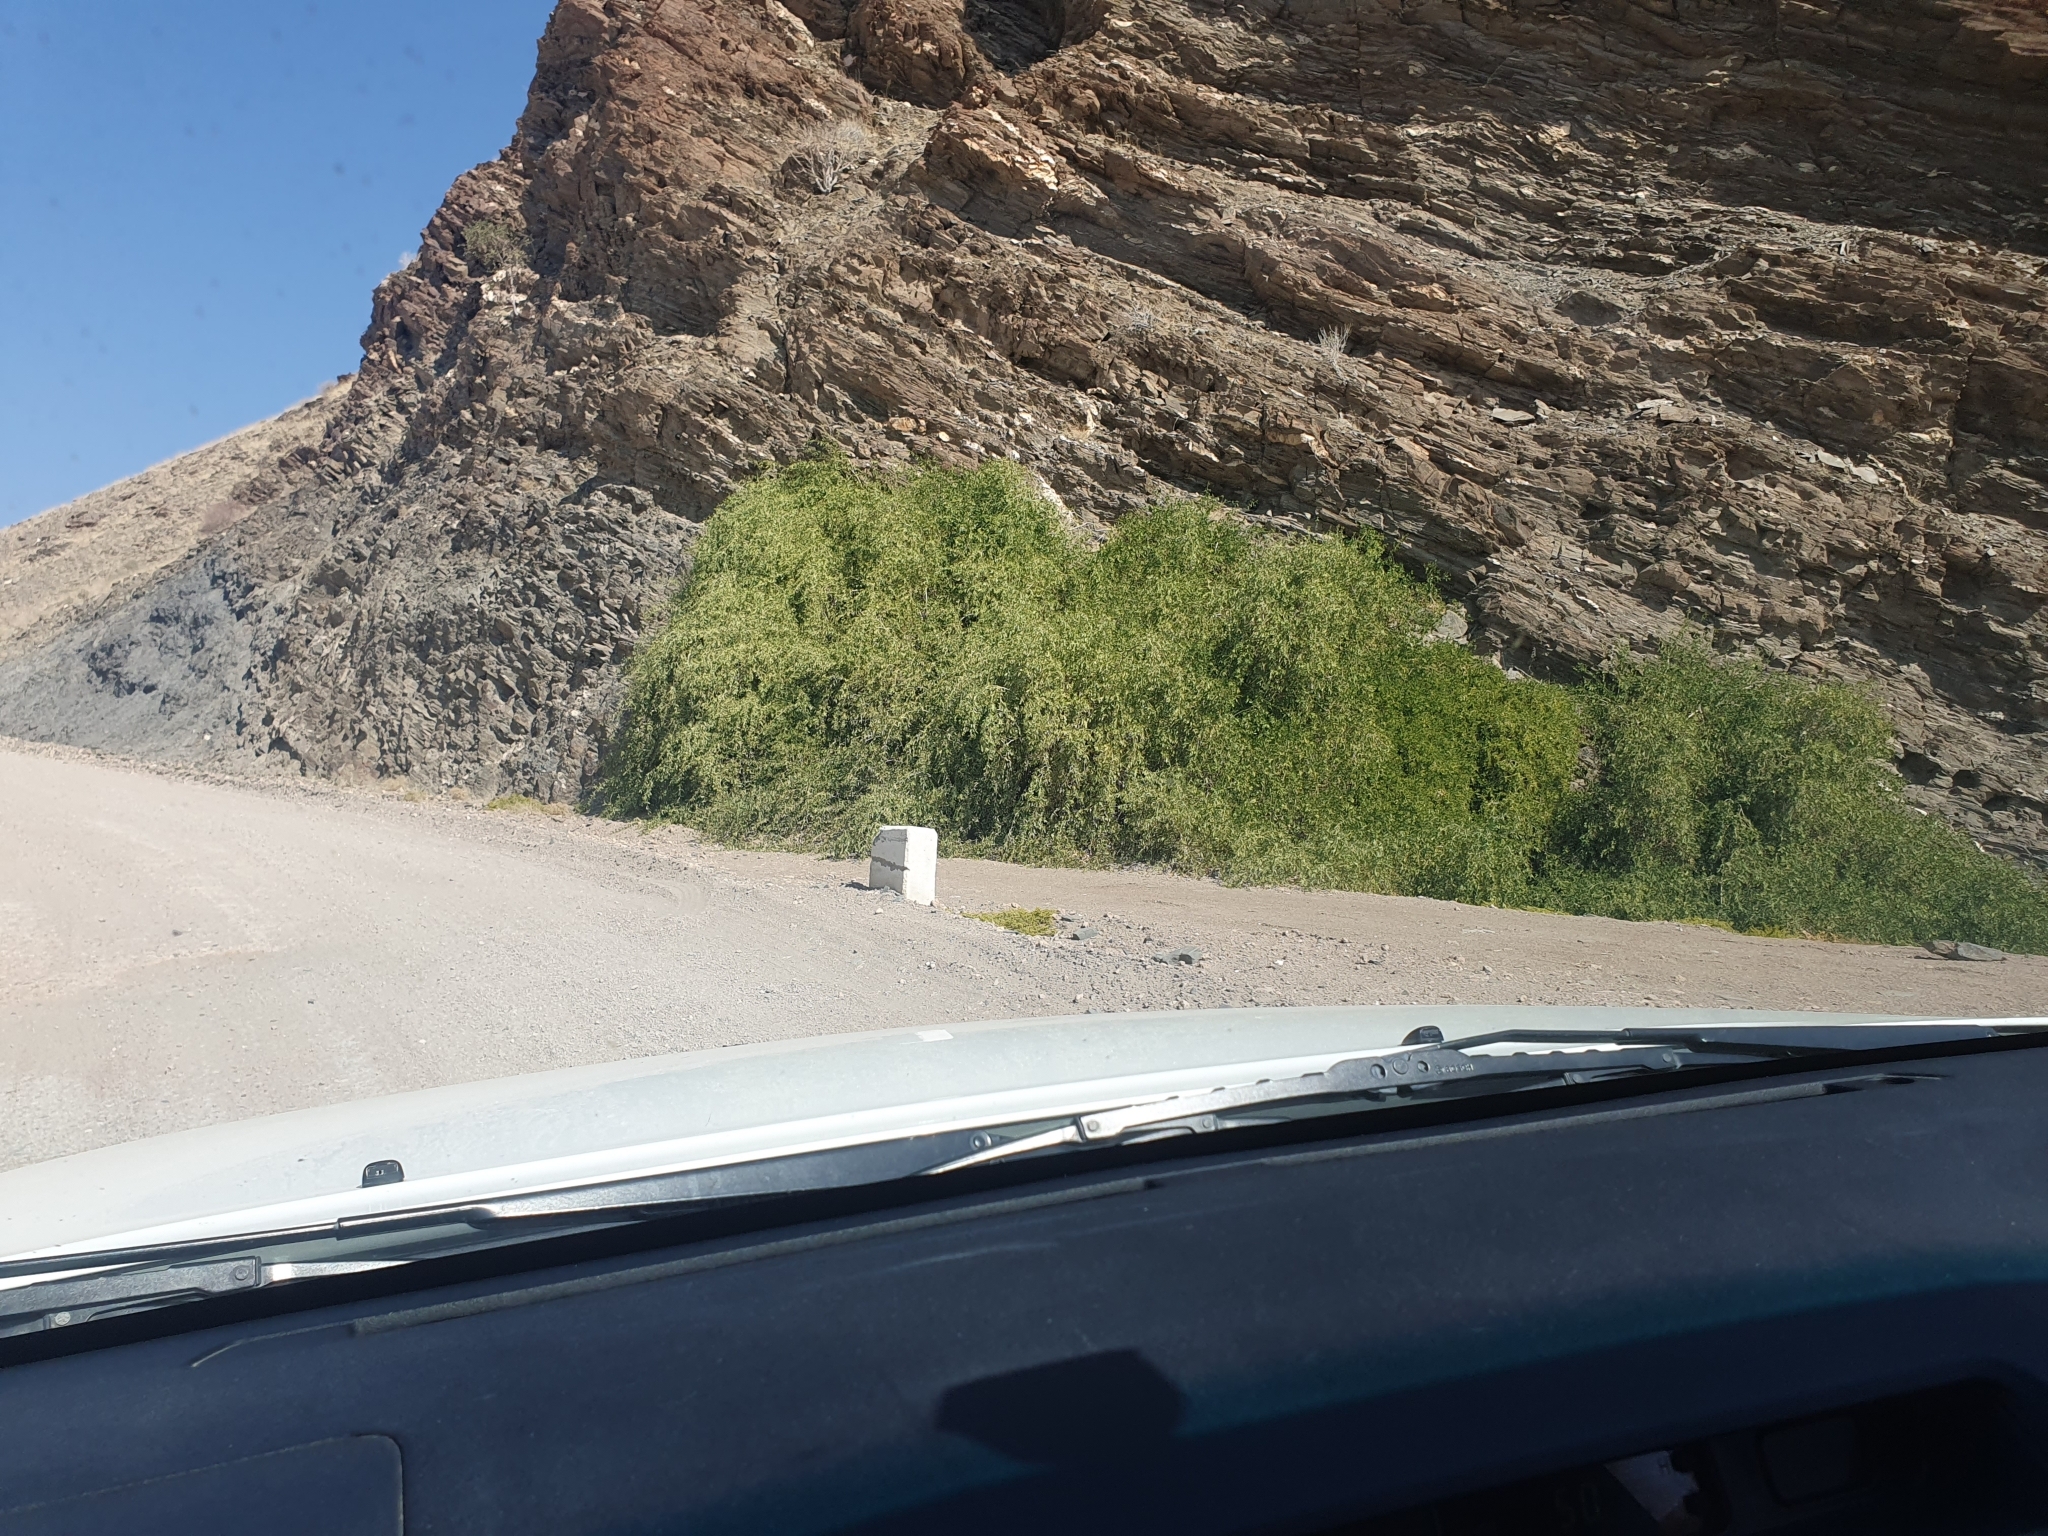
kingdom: Plantae
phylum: Tracheophyta
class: Magnoliopsida
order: Brassicales
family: Salvadoraceae
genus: Salvadora
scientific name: Salvadora persica
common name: Toothbrushtree
